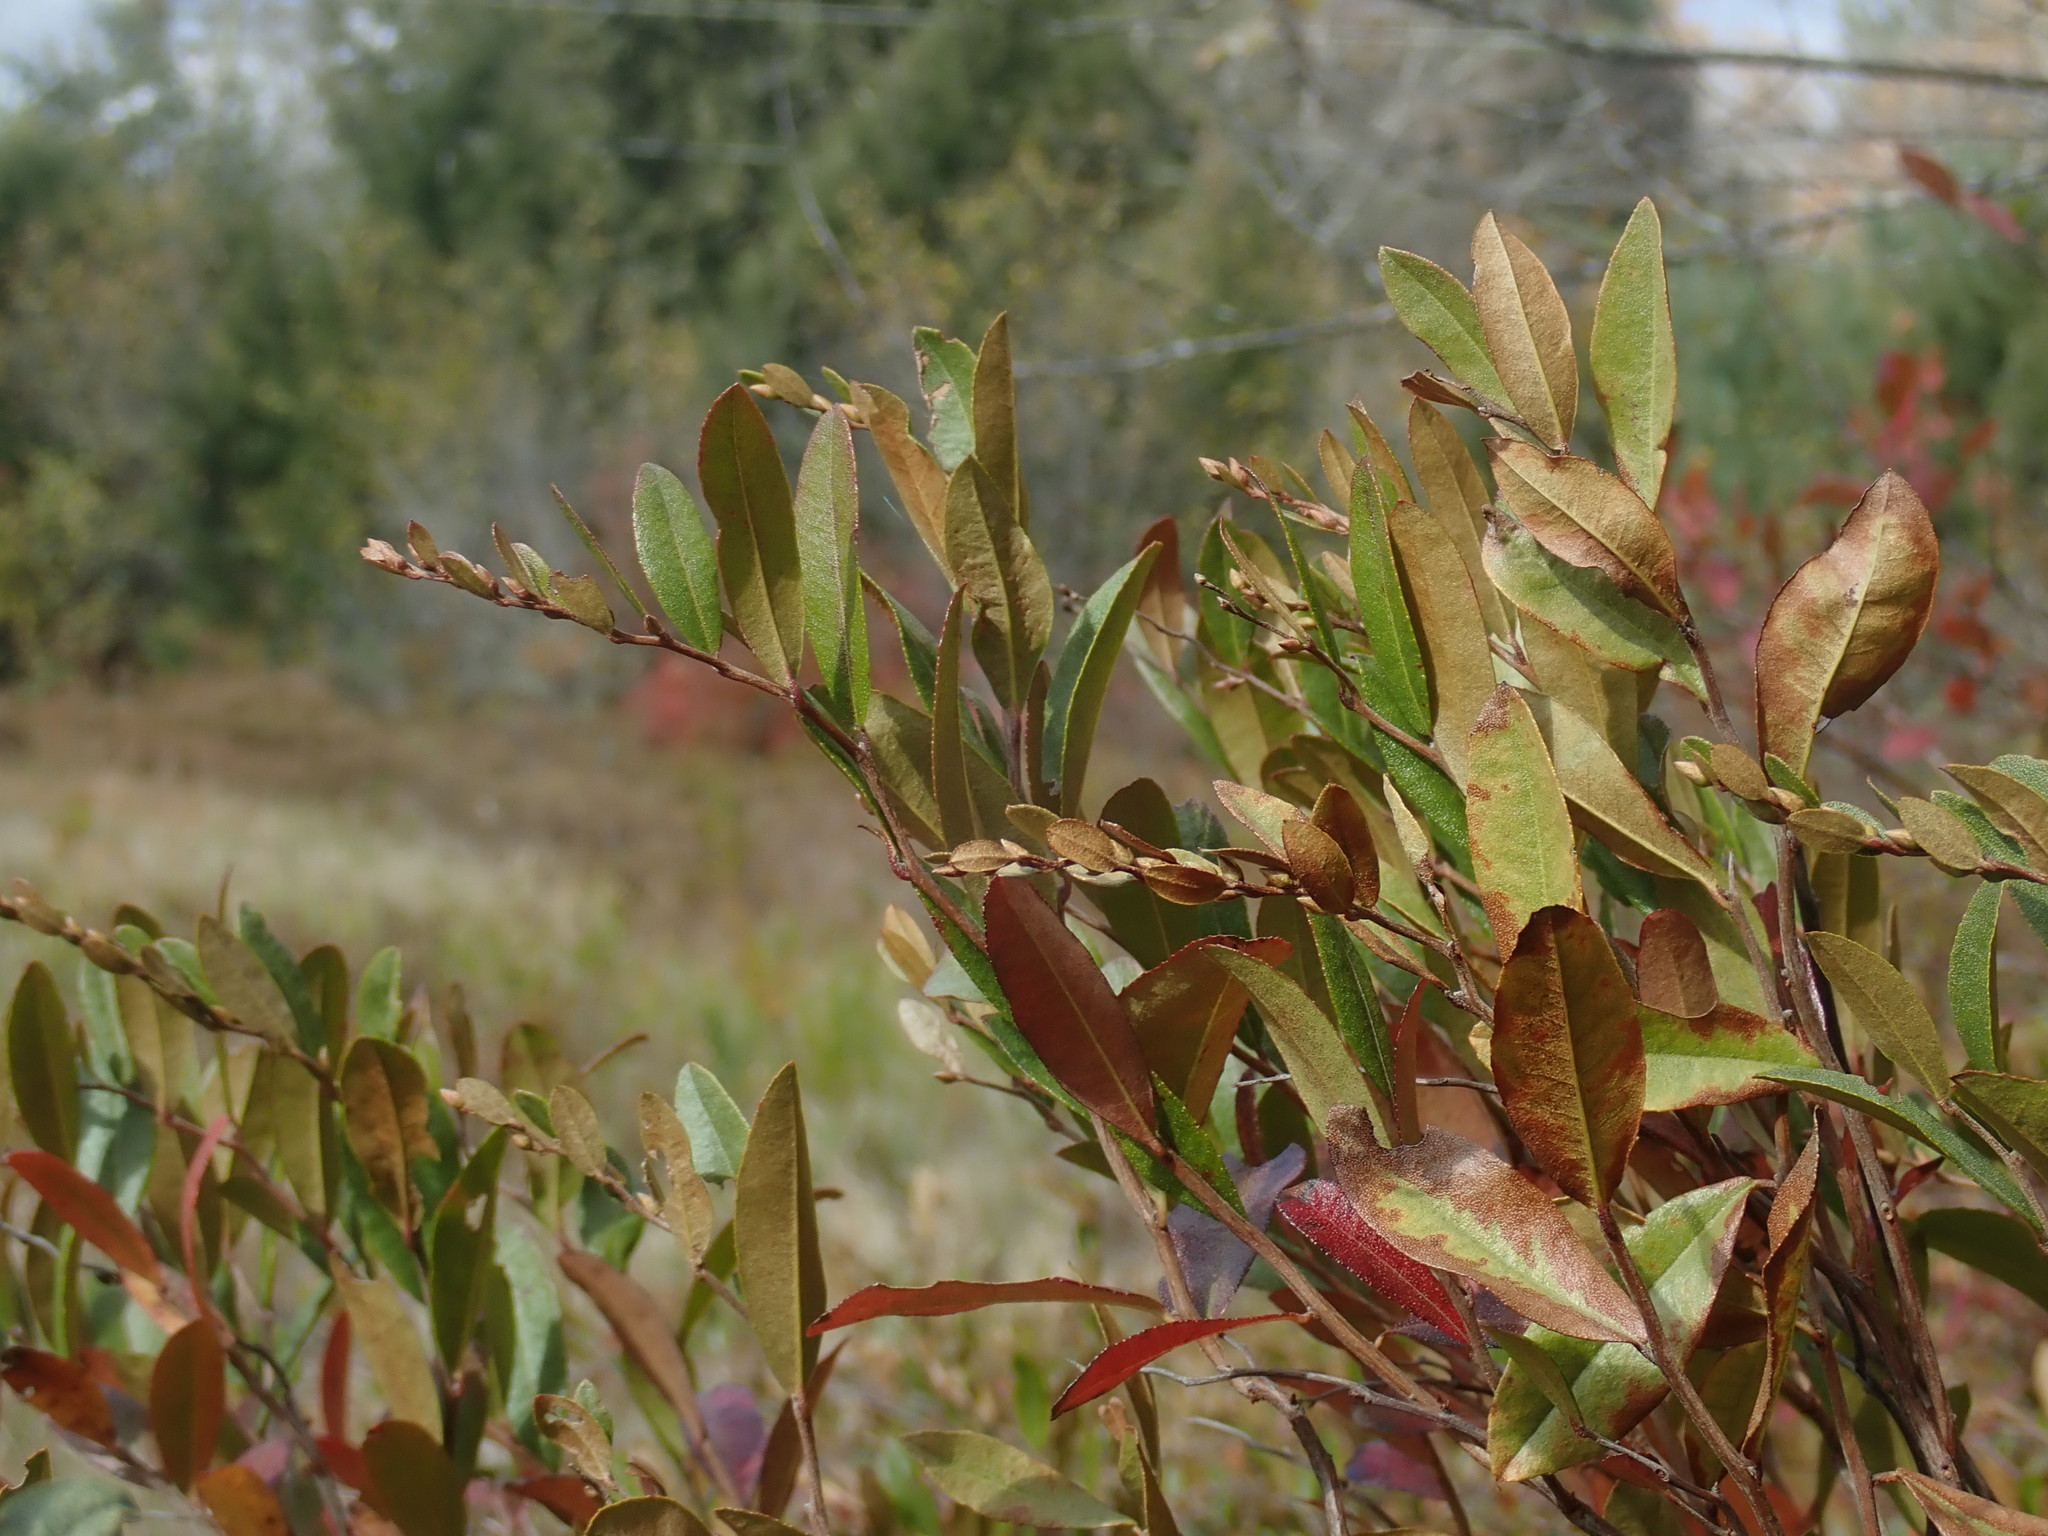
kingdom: Plantae
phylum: Tracheophyta
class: Magnoliopsida
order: Ericales
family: Ericaceae
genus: Chamaedaphne
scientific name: Chamaedaphne calyculata
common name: Leatherleaf
